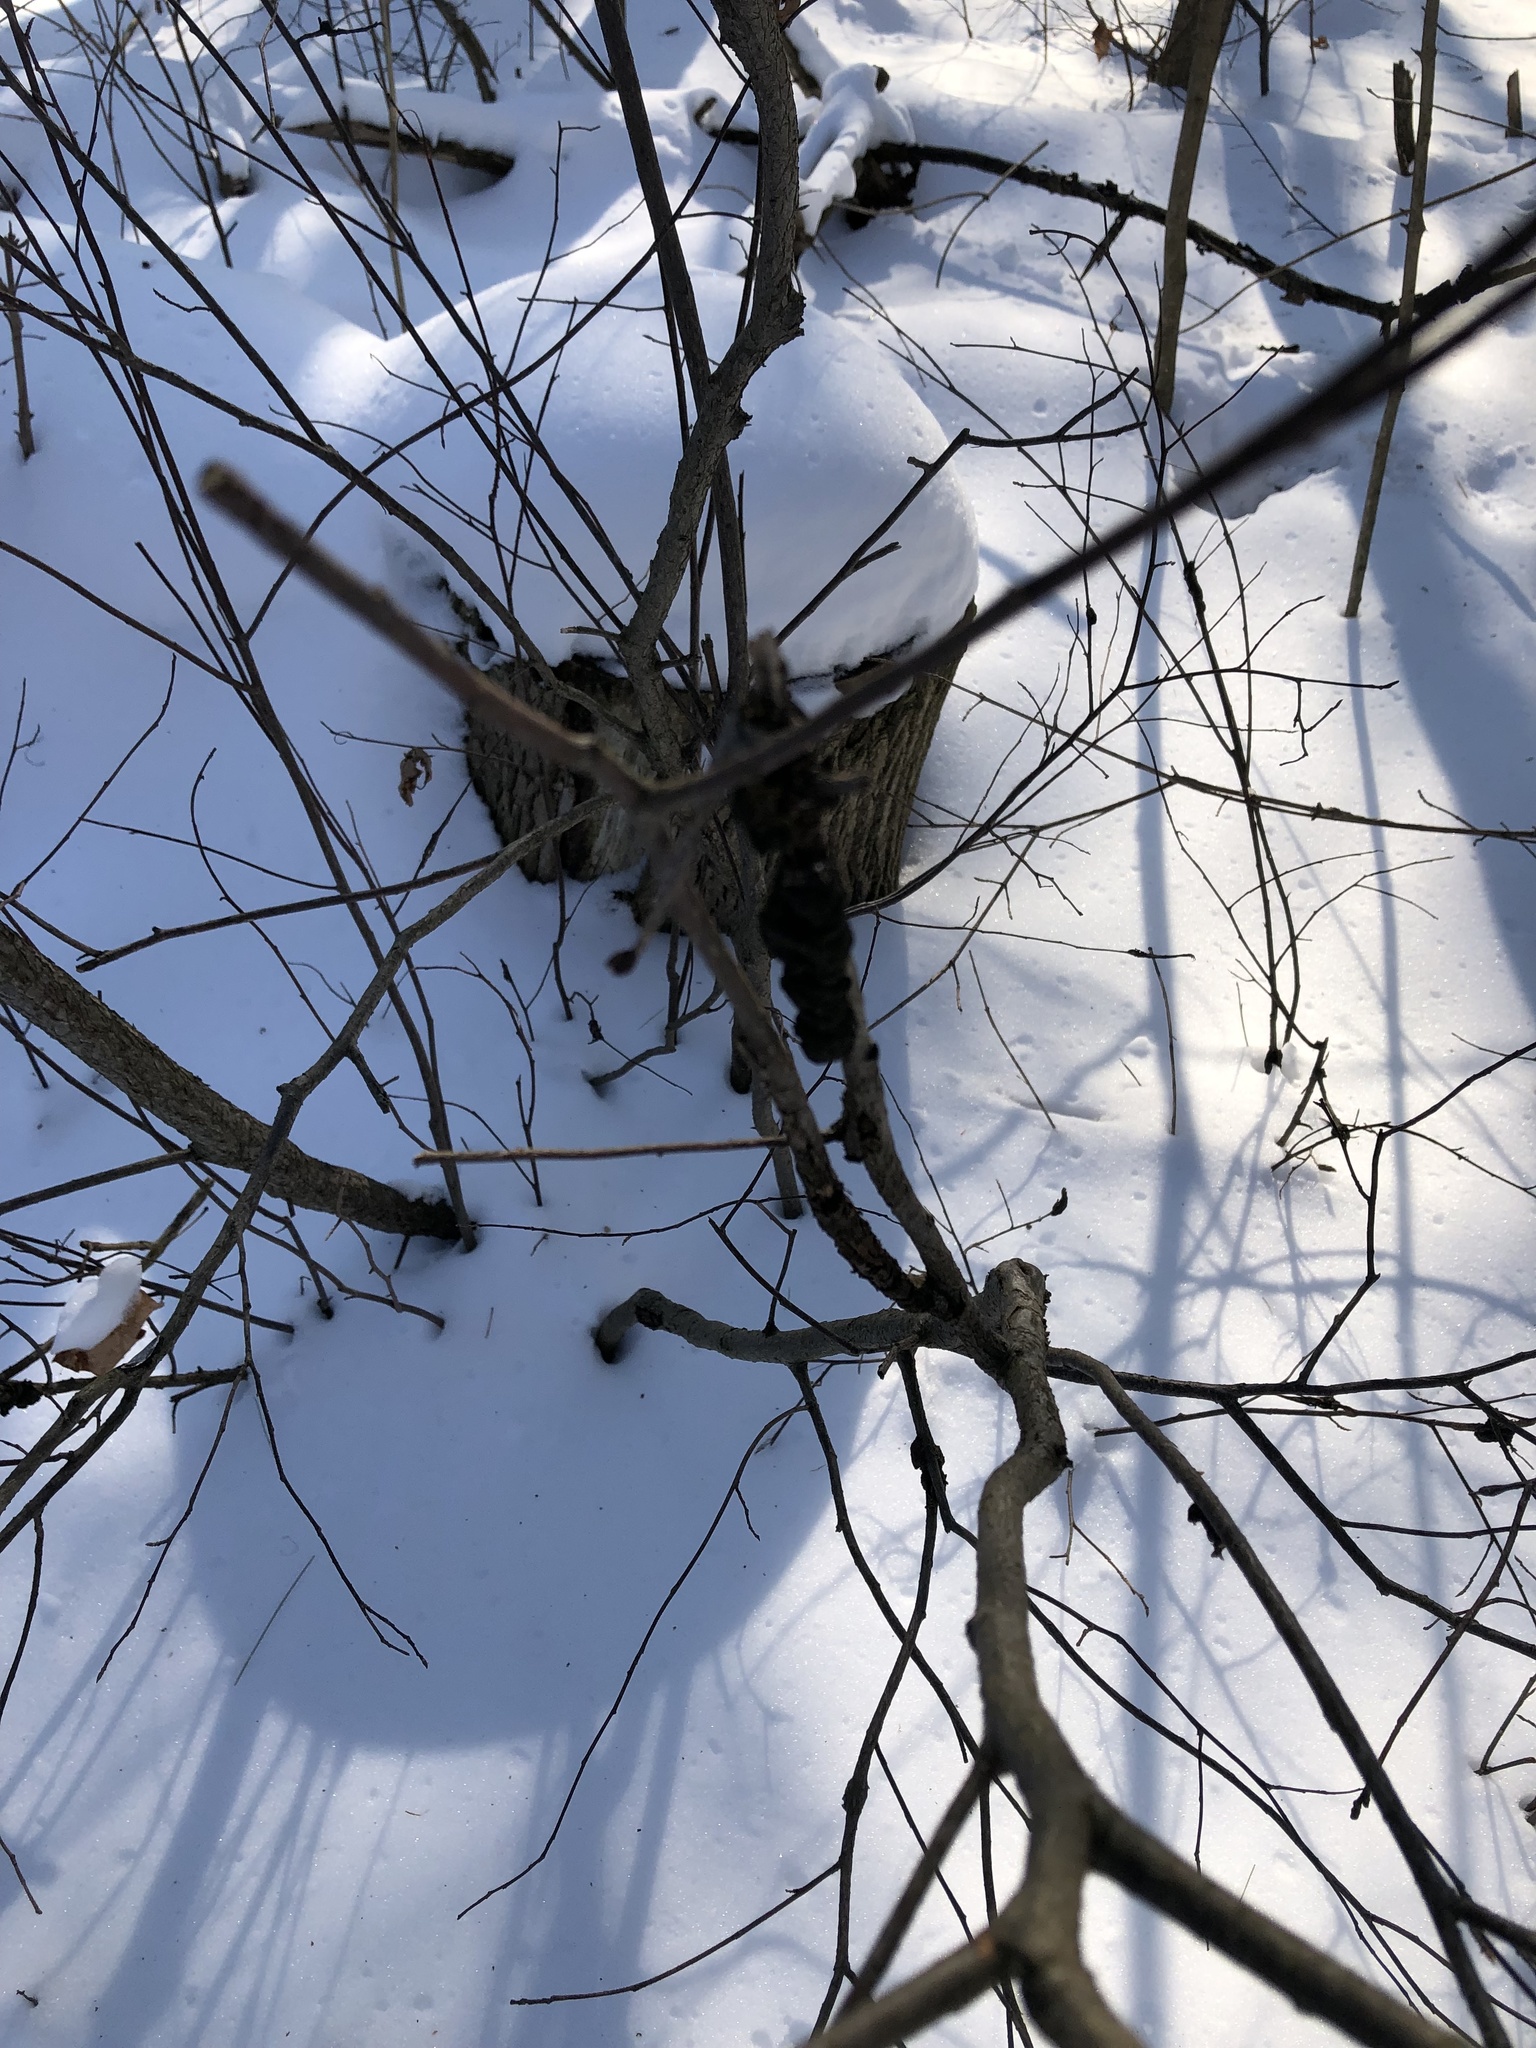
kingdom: Fungi
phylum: Ascomycota
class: Dothideomycetes
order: Venturiales
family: Venturiaceae
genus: Apiosporina
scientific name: Apiosporina morbosa
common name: Black knot
